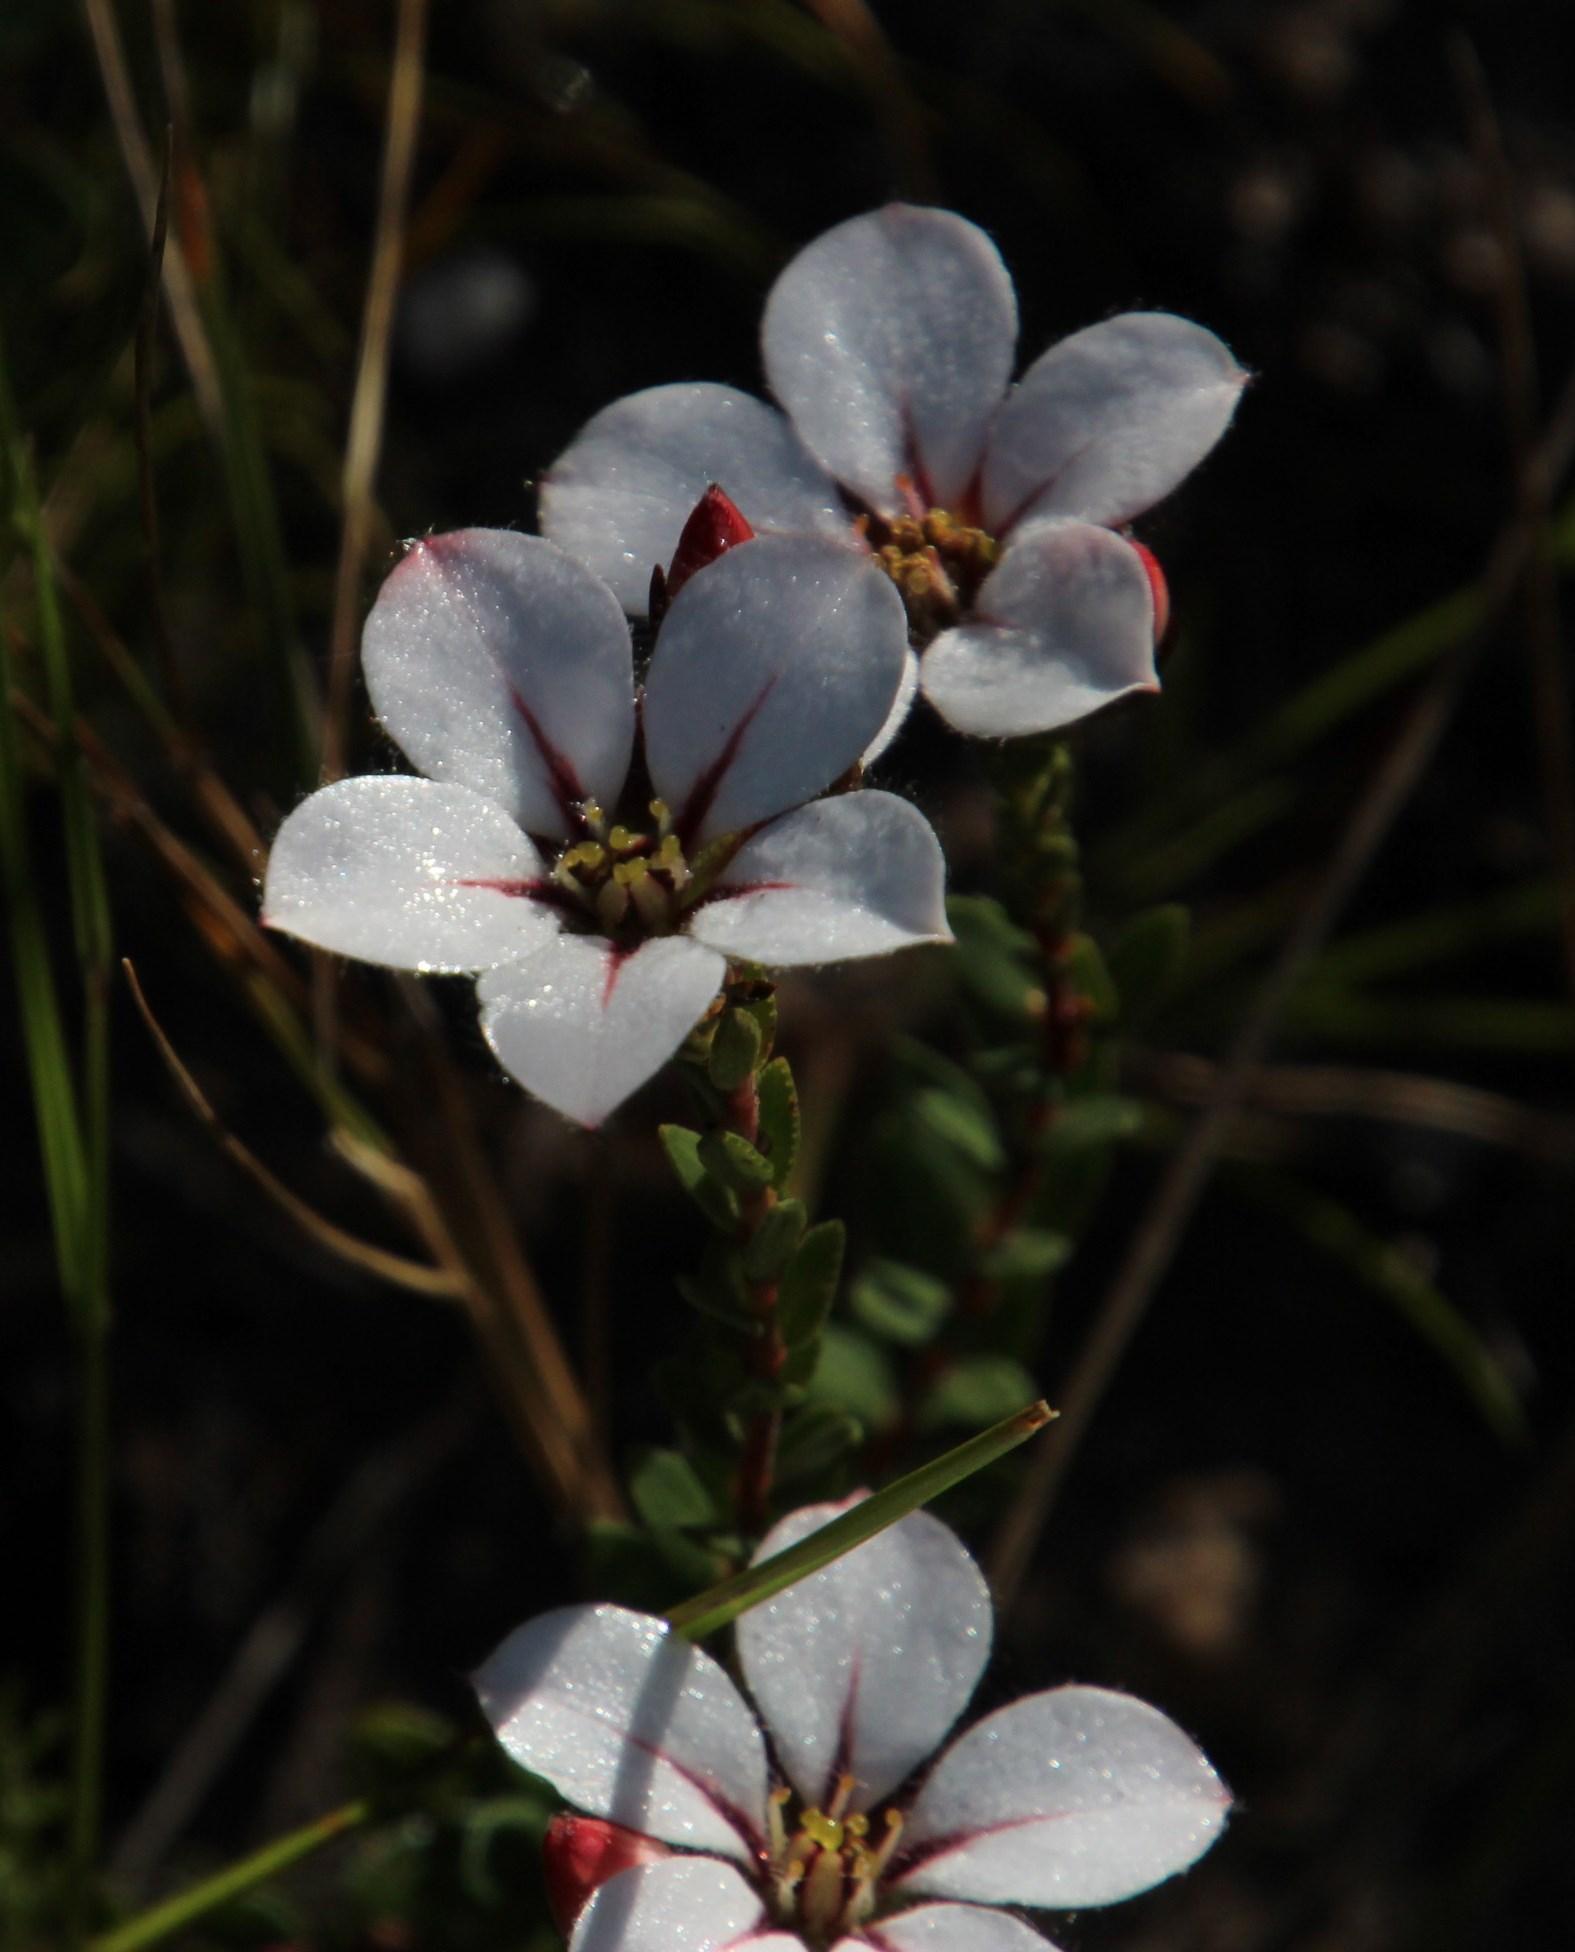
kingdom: Plantae
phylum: Tracheophyta
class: Magnoliopsida
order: Sapindales
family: Rutaceae
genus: Adenandra
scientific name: Adenandra uniflora
